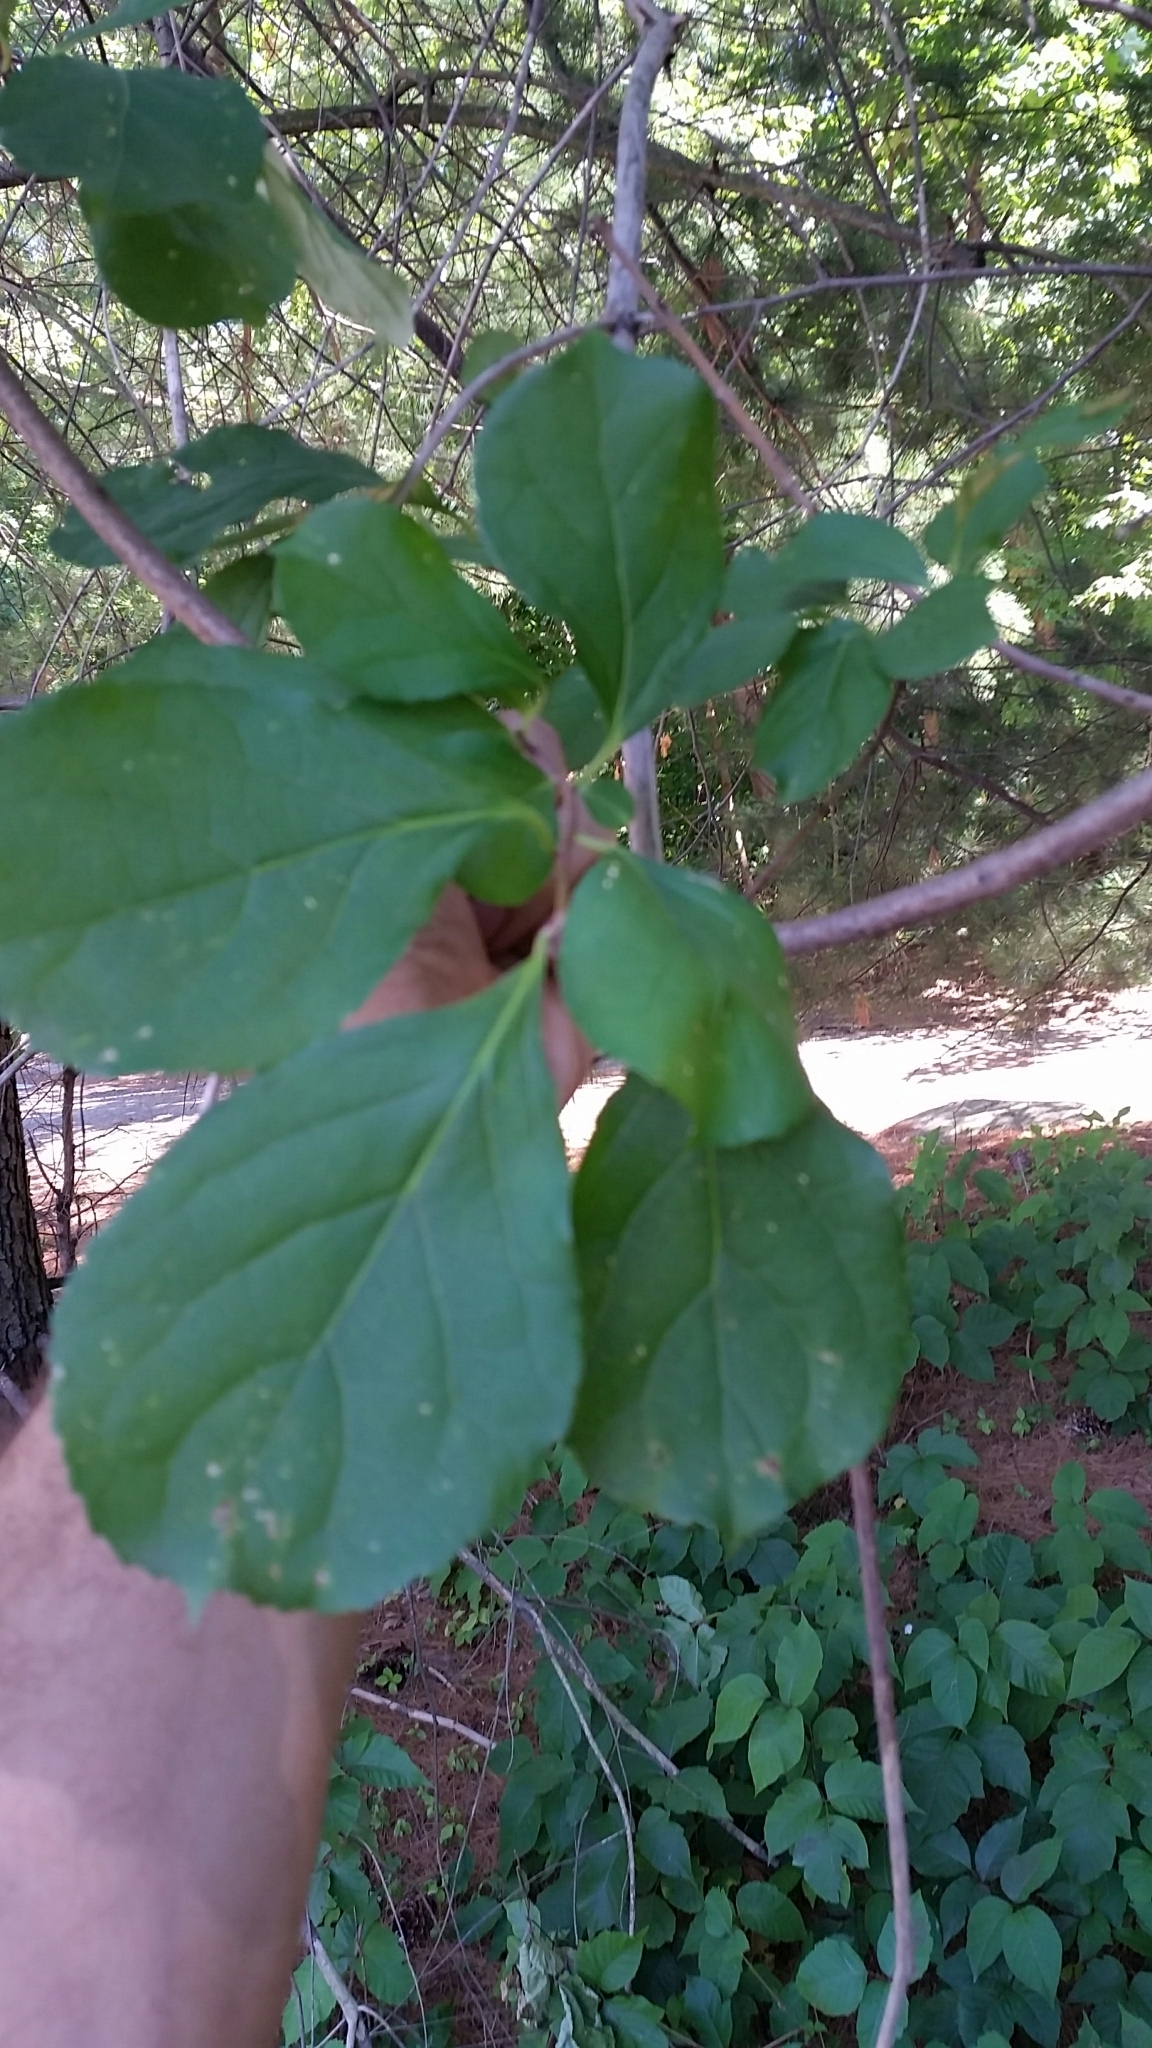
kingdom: Plantae
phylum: Tracheophyta
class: Magnoliopsida
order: Celastrales
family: Celastraceae
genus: Celastrus
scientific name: Celastrus orbiculatus
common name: Oriental bittersweet
